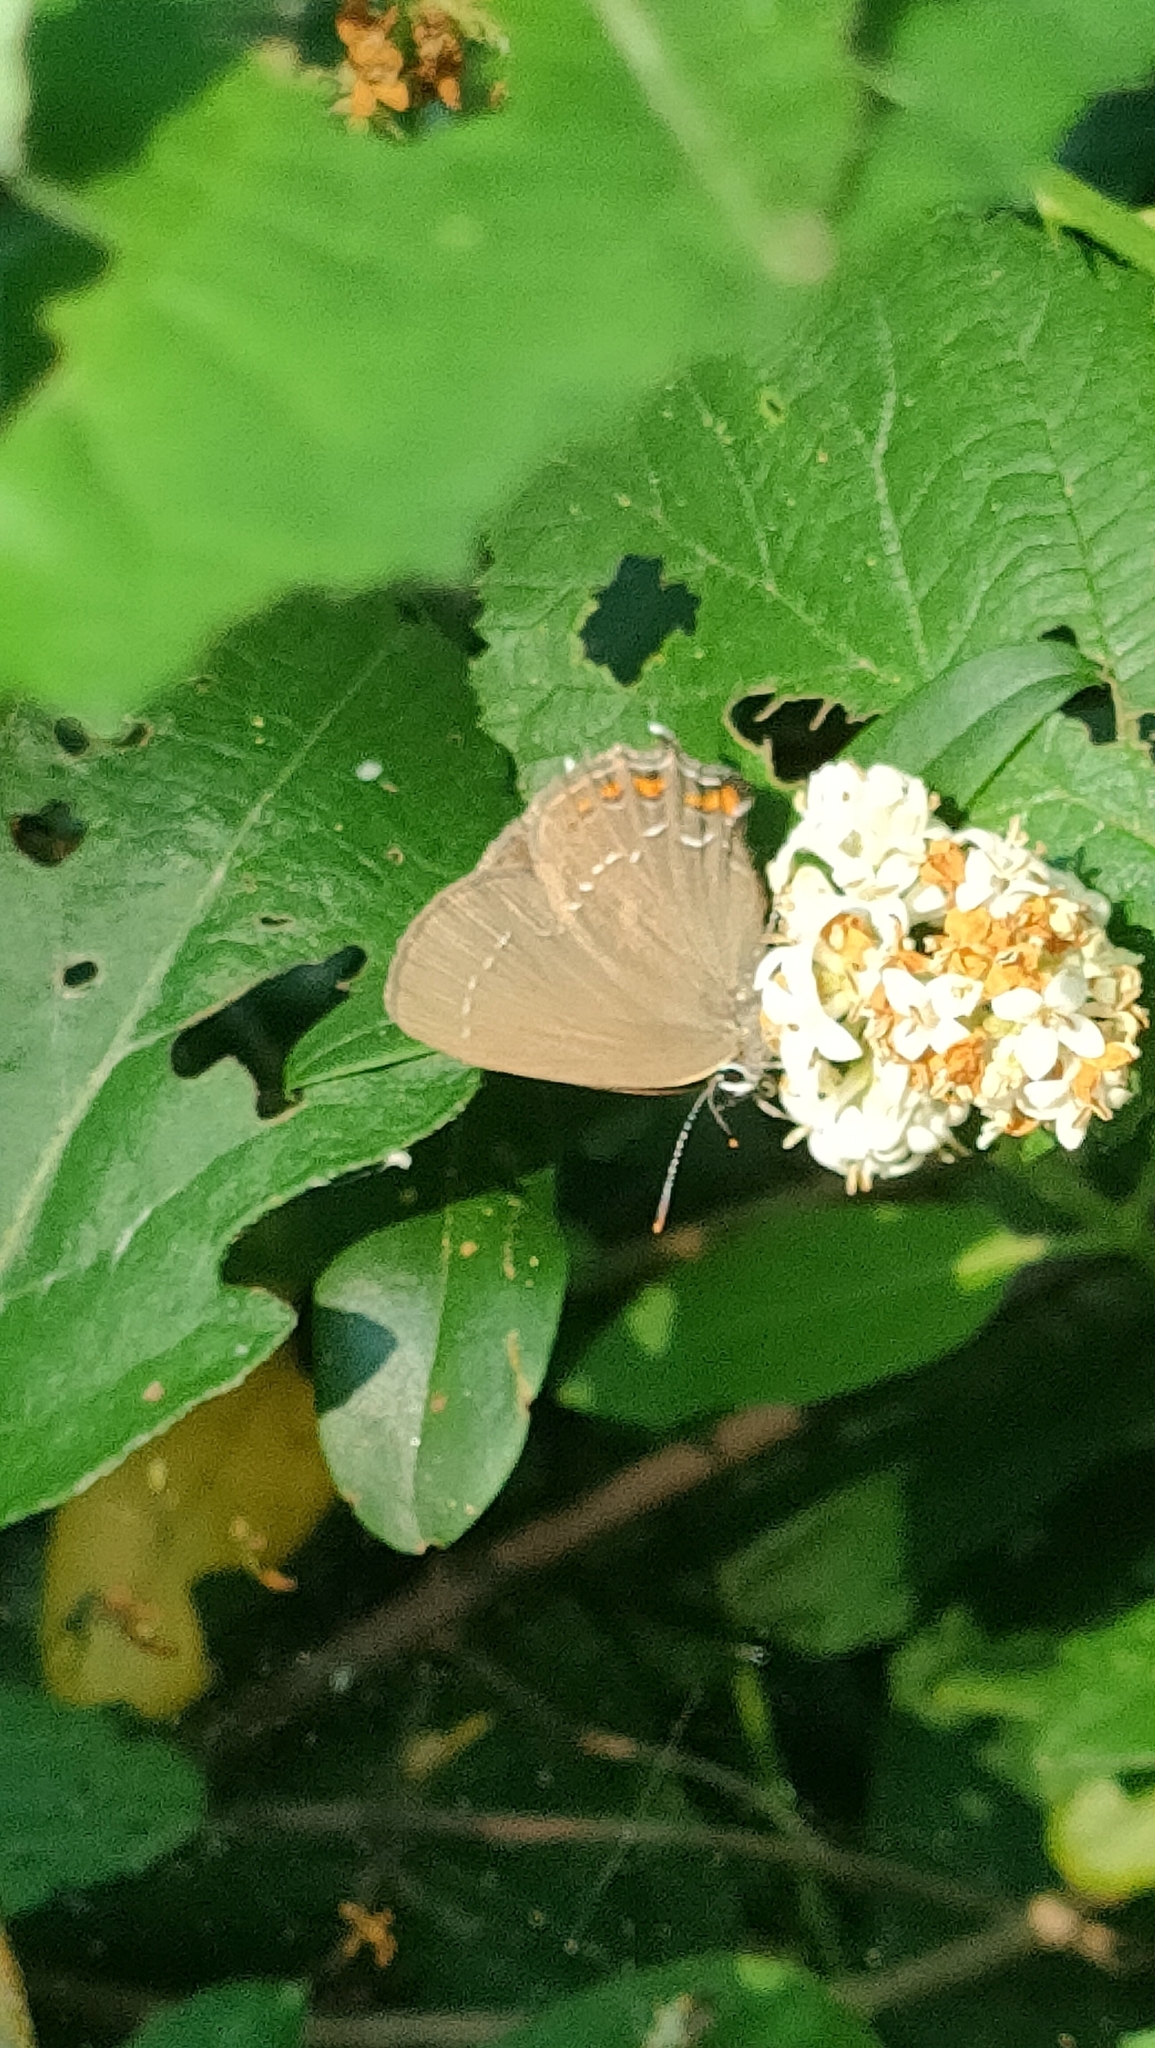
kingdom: Animalia
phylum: Arthropoda
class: Insecta
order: Lepidoptera
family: Lycaenidae
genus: Nordmannia
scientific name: Nordmannia ilicis
